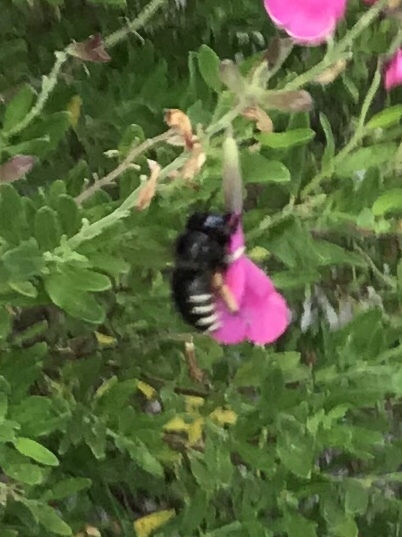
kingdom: Animalia
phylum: Arthropoda
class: Insecta
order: Hymenoptera
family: Apidae
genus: Xylocopa
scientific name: Xylocopa tabaniformis
